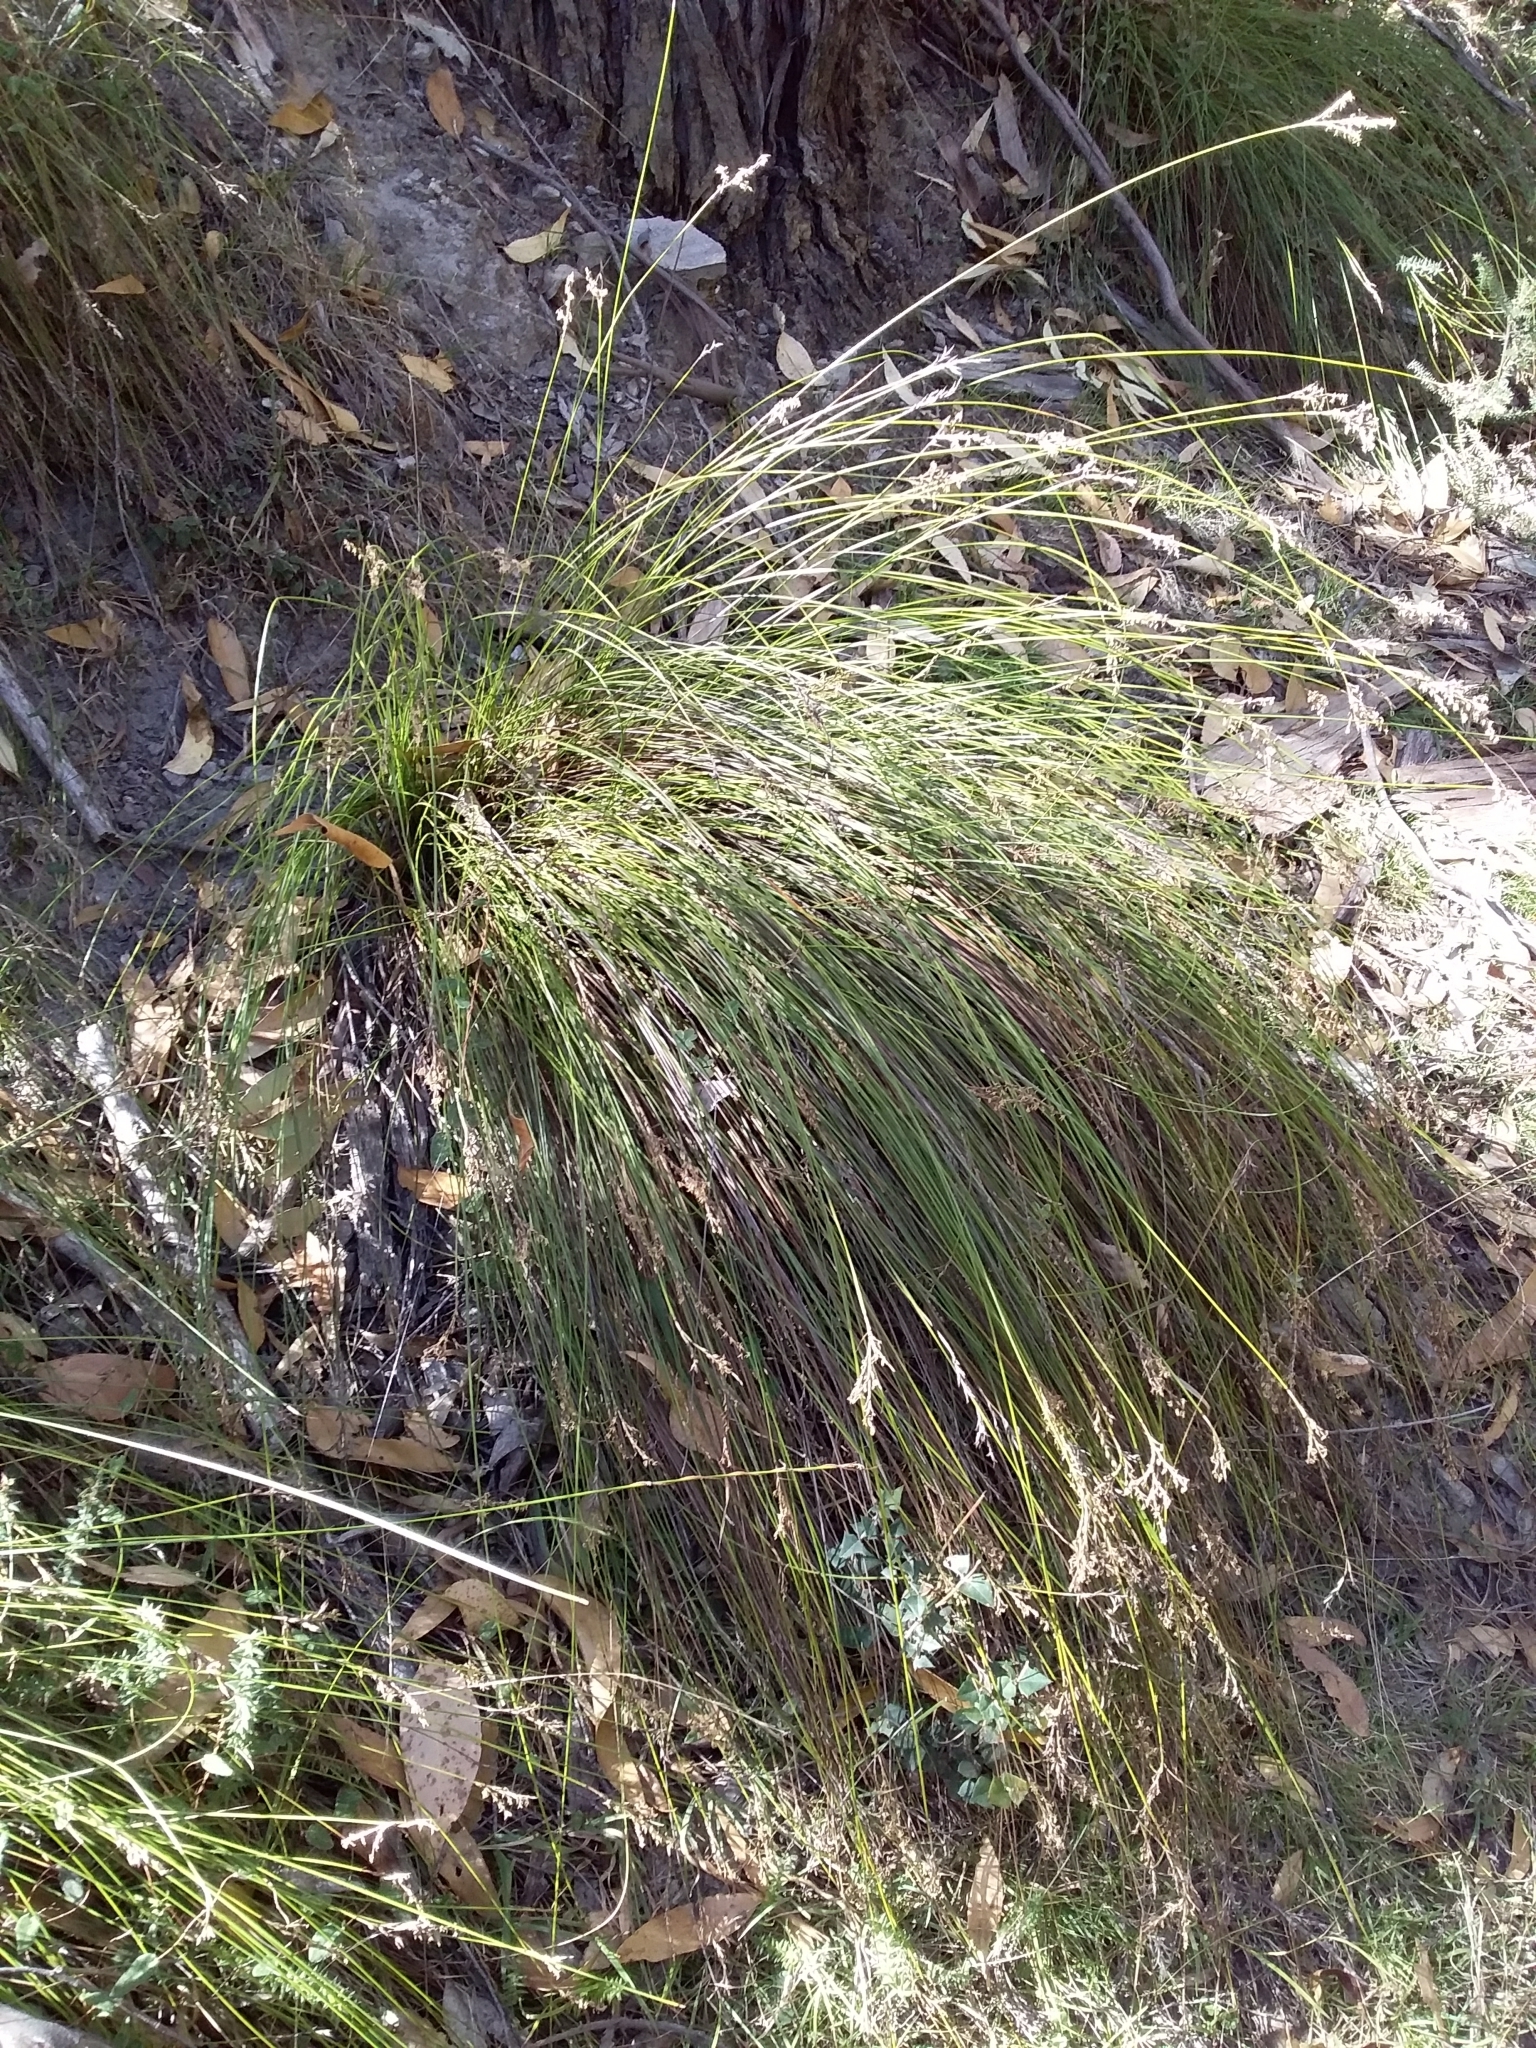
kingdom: Plantae
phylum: Tracheophyta
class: Liliopsida
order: Poales
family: Cyperaceae
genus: Lepidosperma
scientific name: Lepidosperma semiteres
